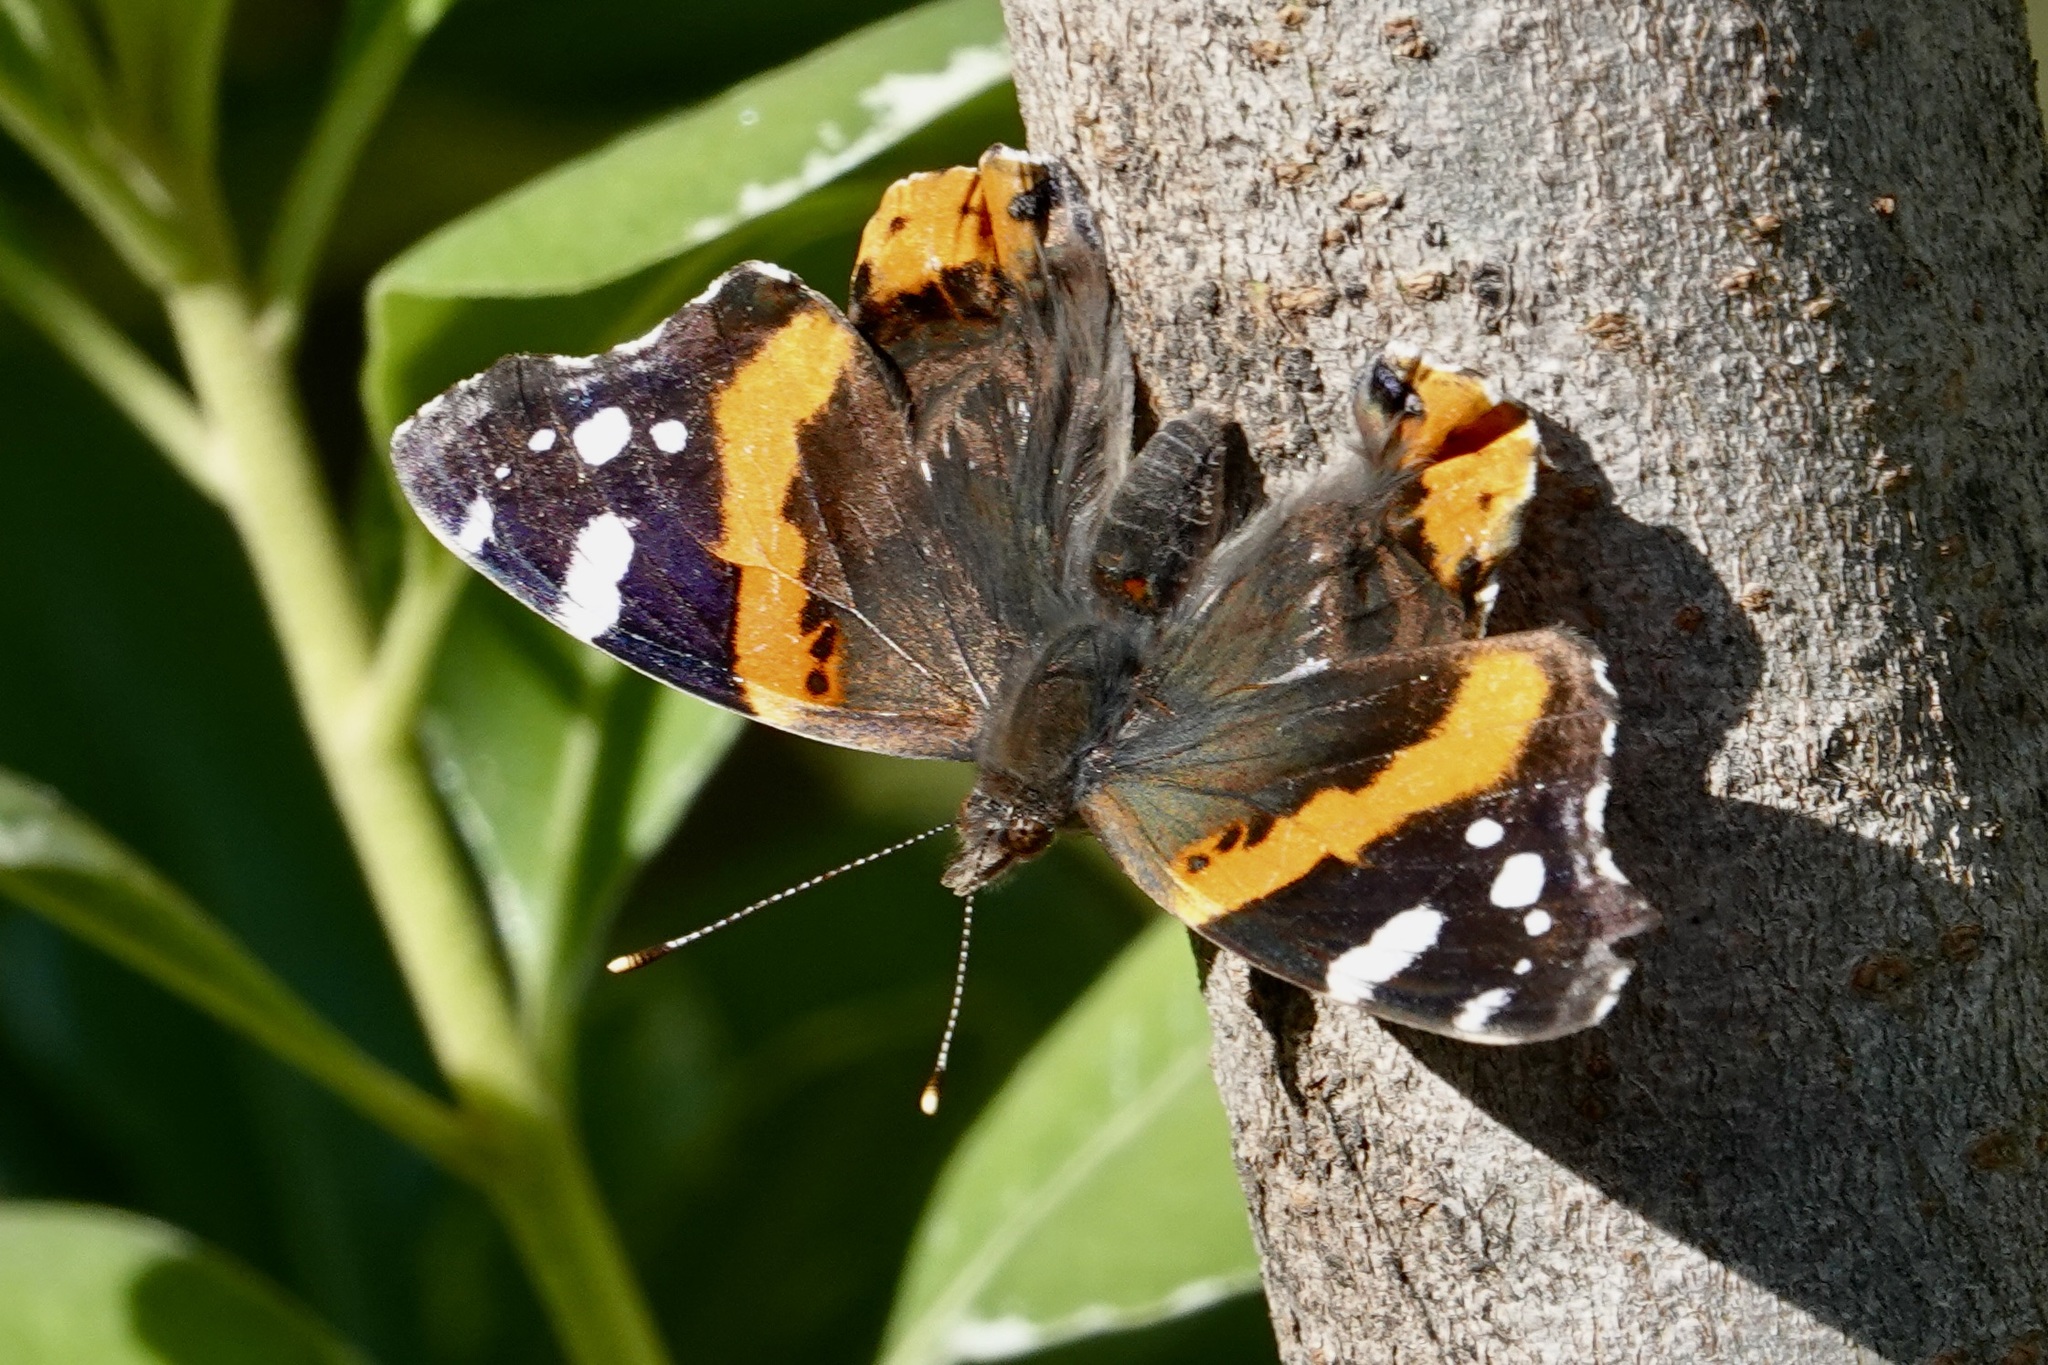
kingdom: Animalia
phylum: Arthropoda
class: Insecta
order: Lepidoptera
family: Nymphalidae
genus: Vanessa
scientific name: Vanessa atalanta
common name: Red admiral
